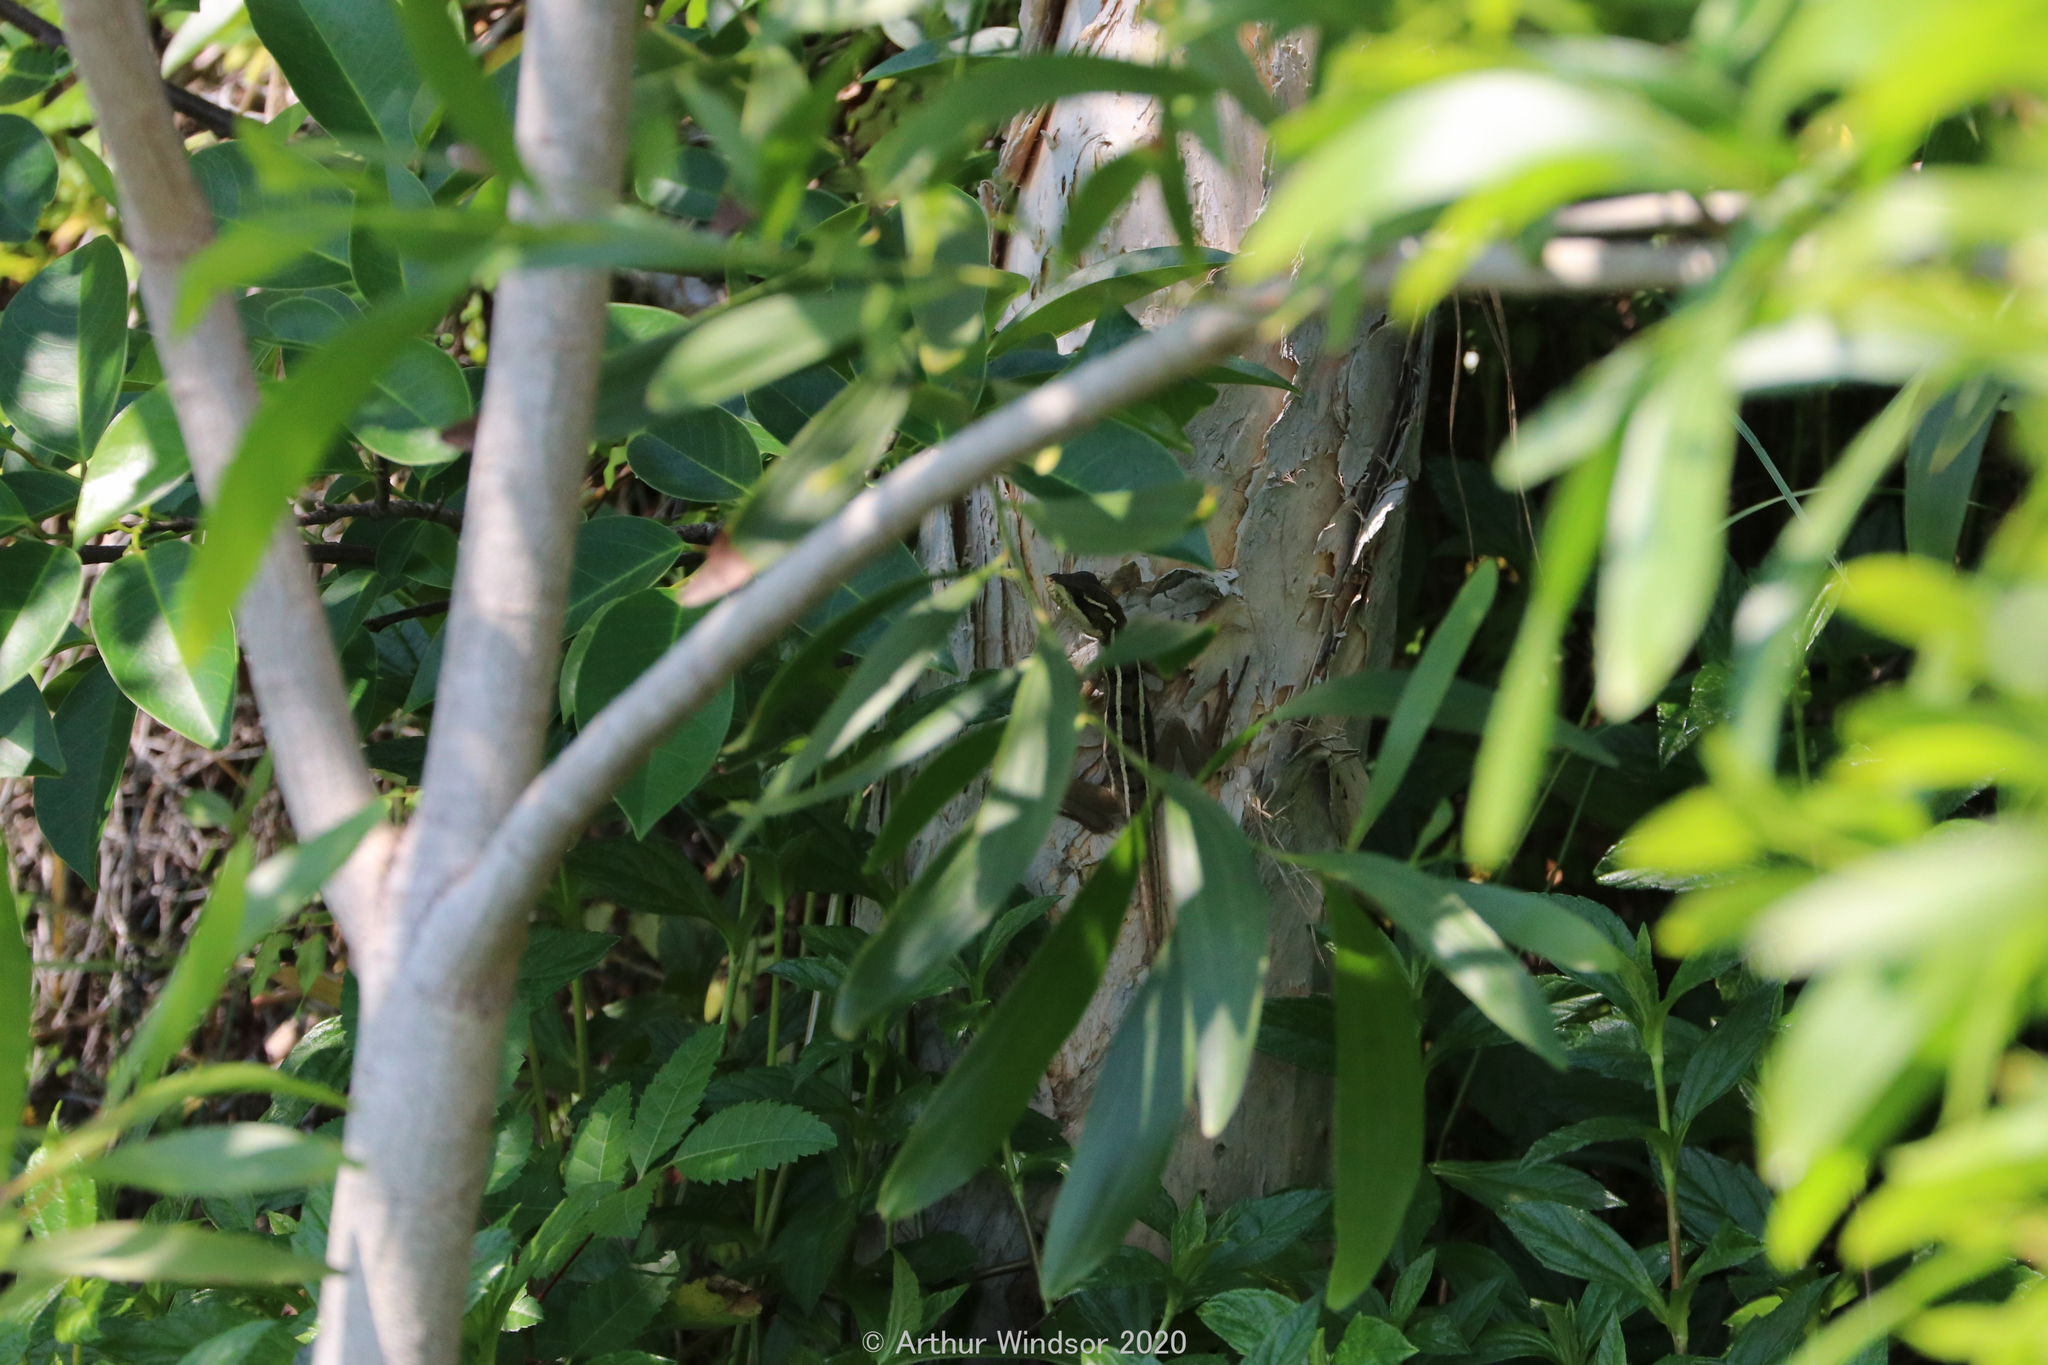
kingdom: Animalia
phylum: Chordata
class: Squamata
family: Corytophanidae
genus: Basiliscus
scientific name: Basiliscus vittatus
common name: Brown basilisk
